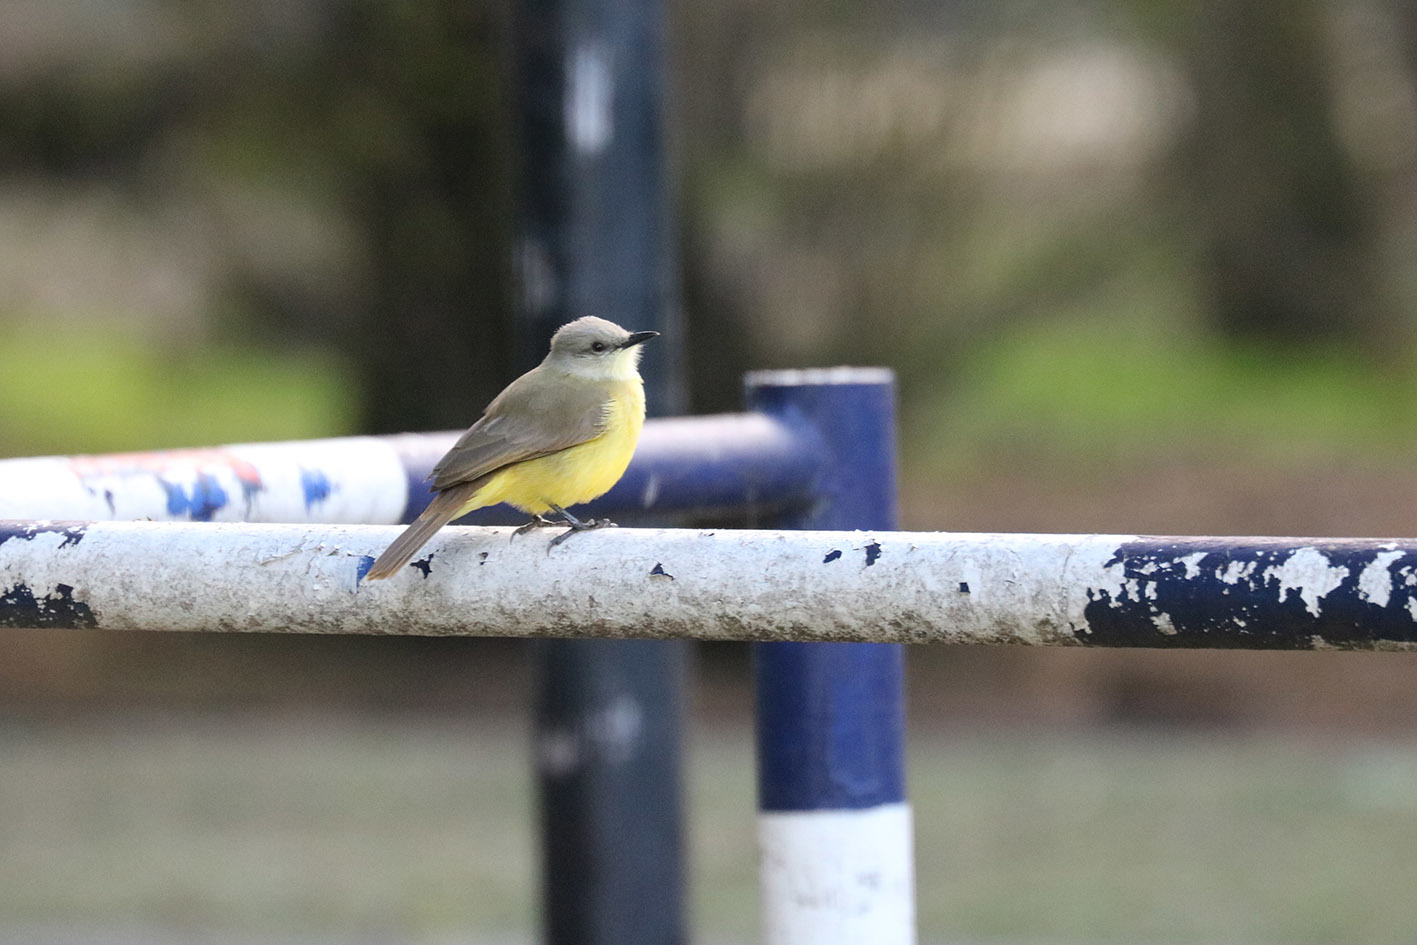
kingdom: Animalia
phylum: Chordata
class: Aves
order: Passeriformes
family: Tyrannidae
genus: Machetornis
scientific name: Machetornis rixosa
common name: Cattle tyrant
